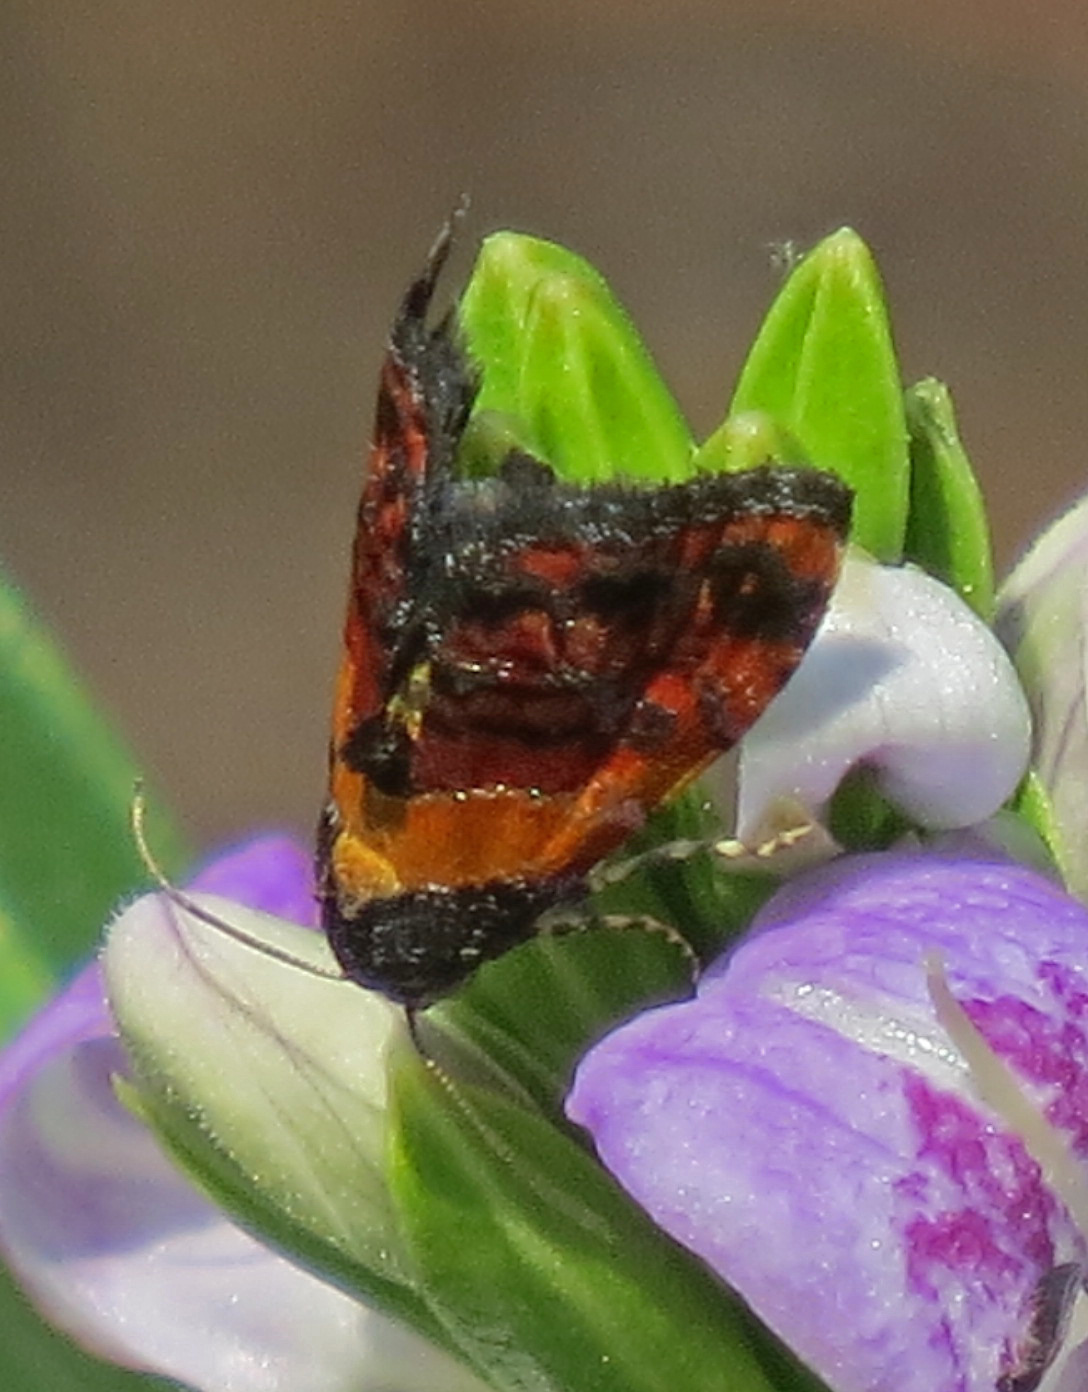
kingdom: Animalia
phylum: Arthropoda
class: Insecta
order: Lepidoptera
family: Noctuidae
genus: Tripudia
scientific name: Tripudia flavofasciata
